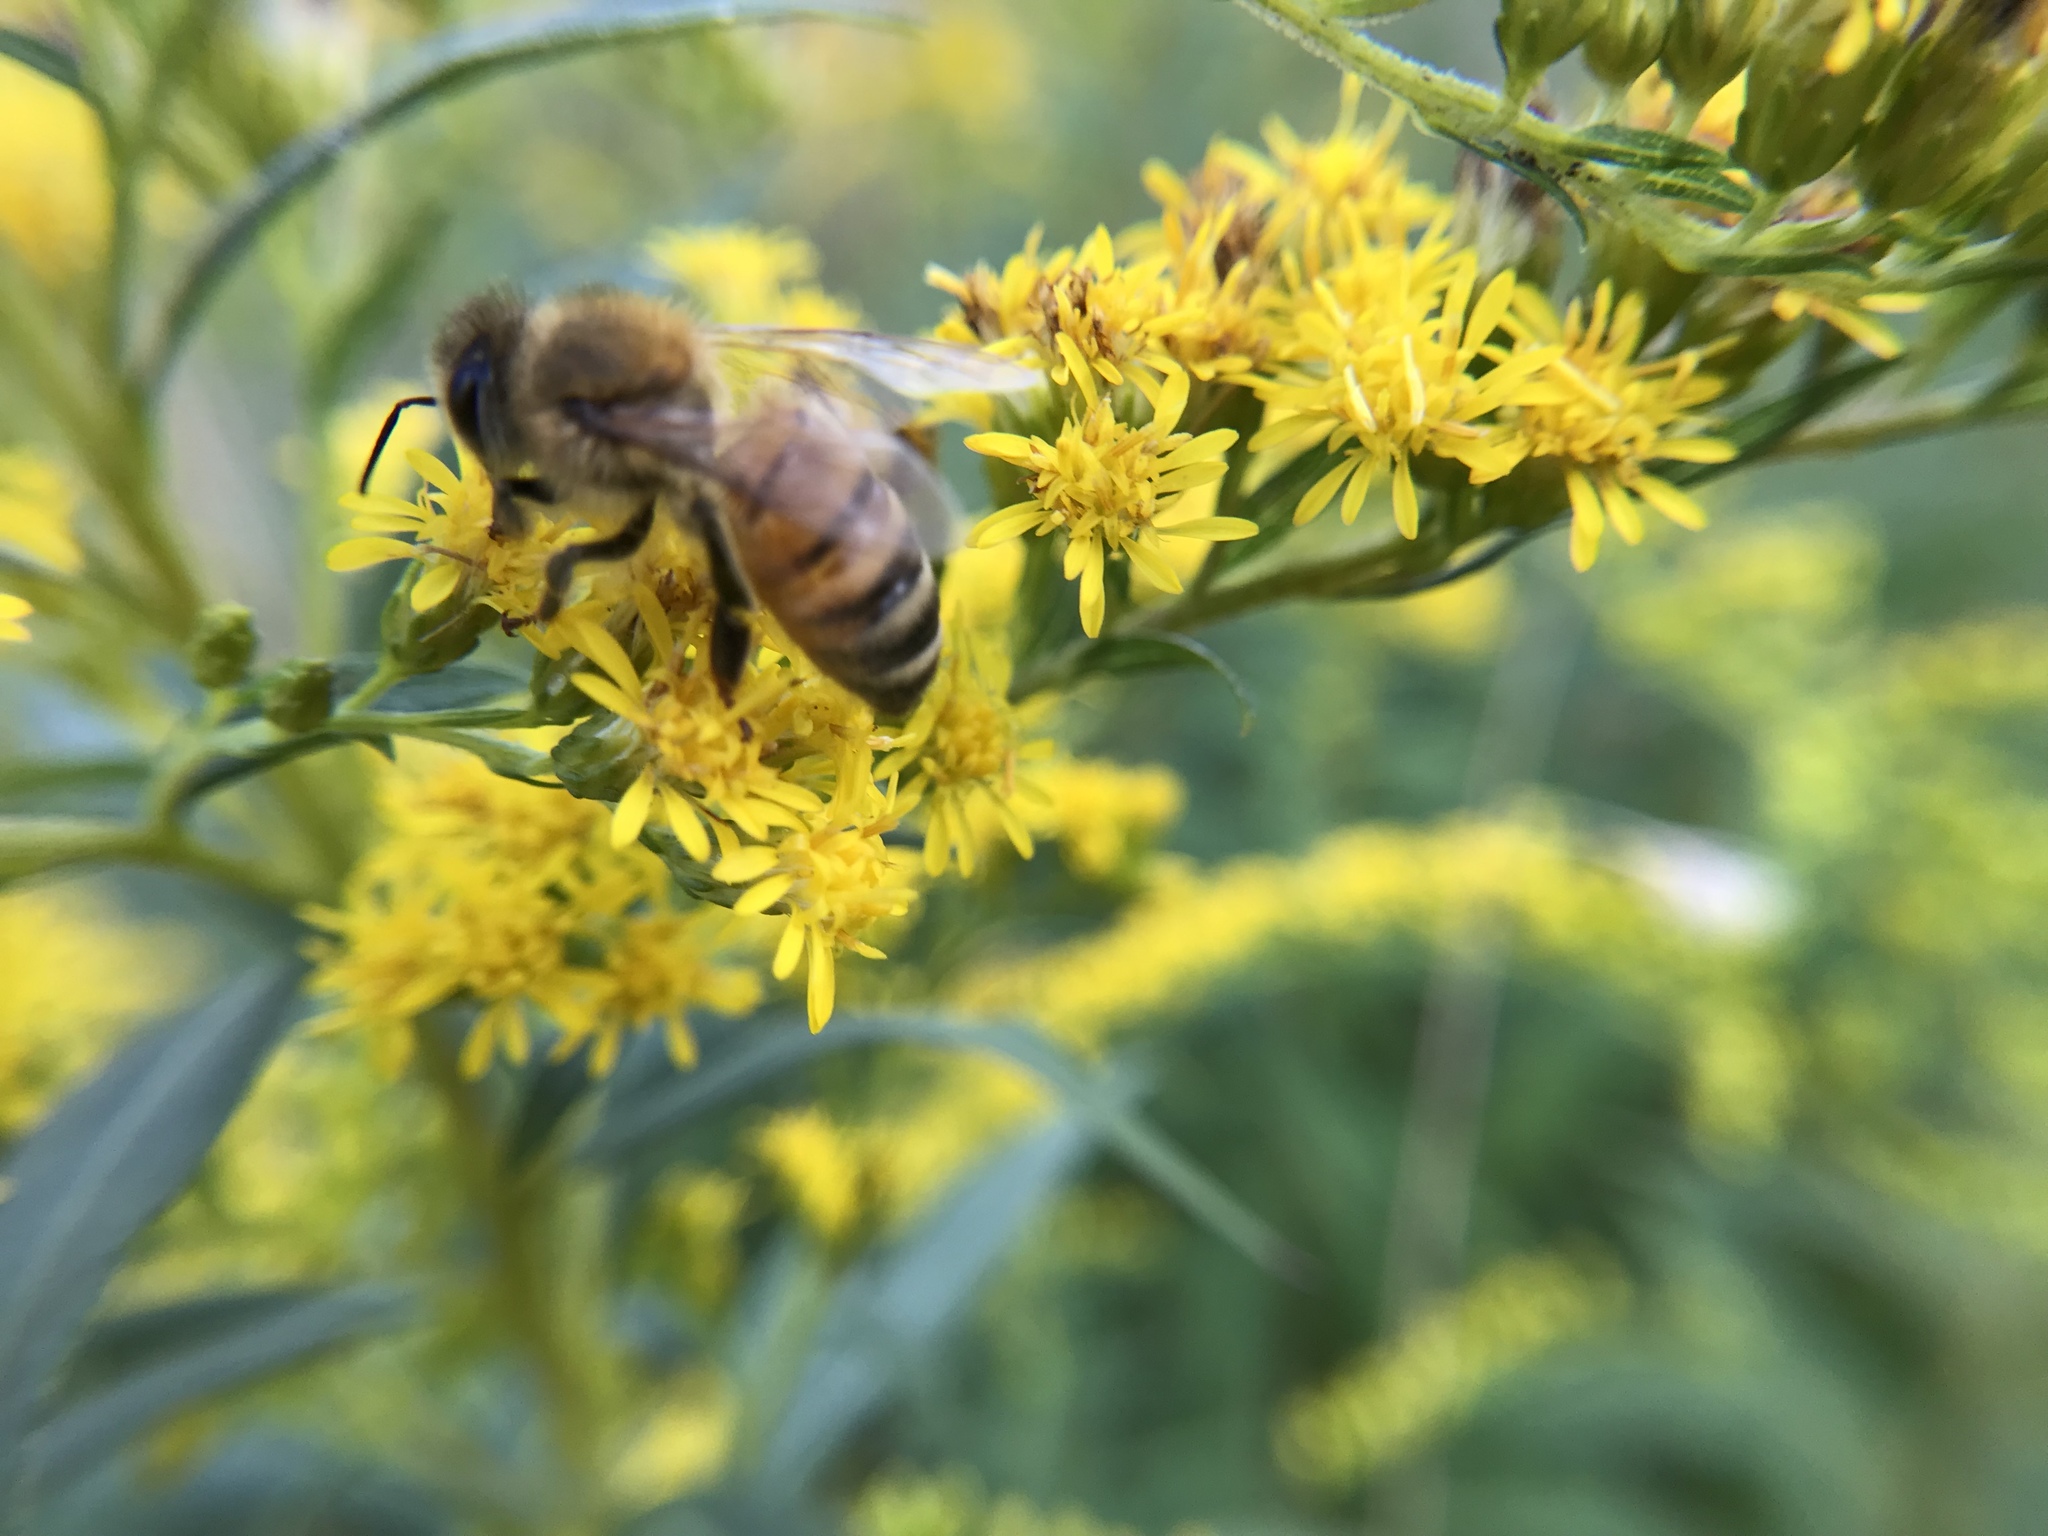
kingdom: Animalia
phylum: Arthropoda
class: Insecta
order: Hymenoptera
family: Apidae
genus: Apis
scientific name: Apis mellifera
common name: Honey bee
